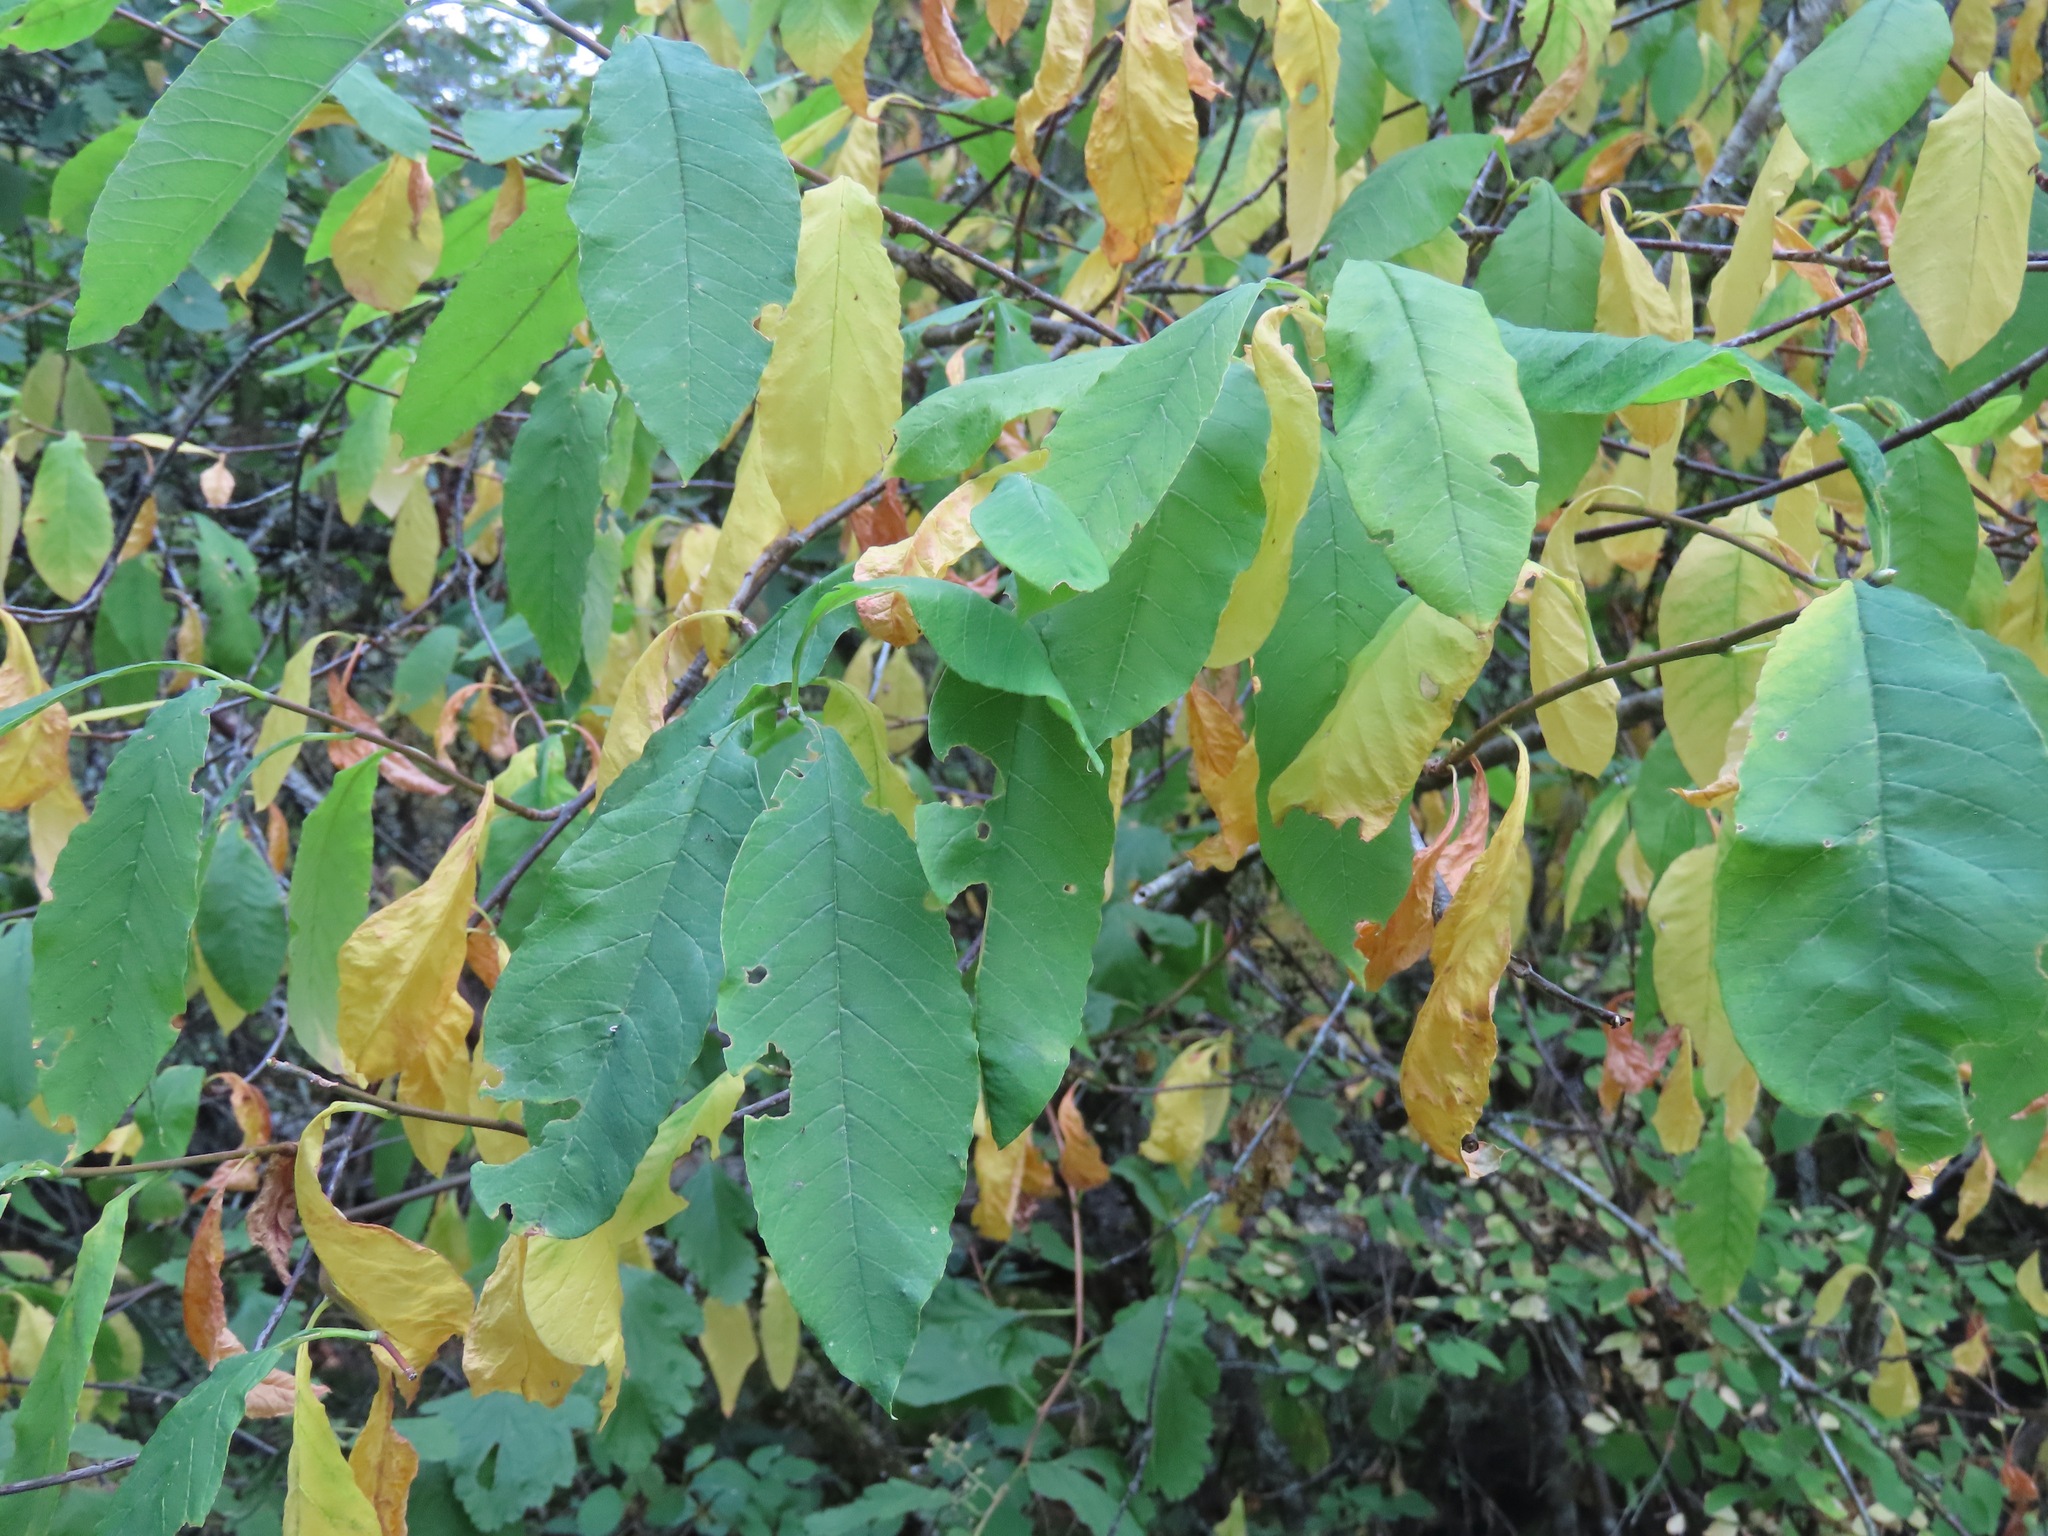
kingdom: Plantae
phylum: Tracheophyta
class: Magnoliopsida
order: Rosales
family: Rosaceae
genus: Oemleria
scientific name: Oemleria cerasiformis
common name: Osoberry
